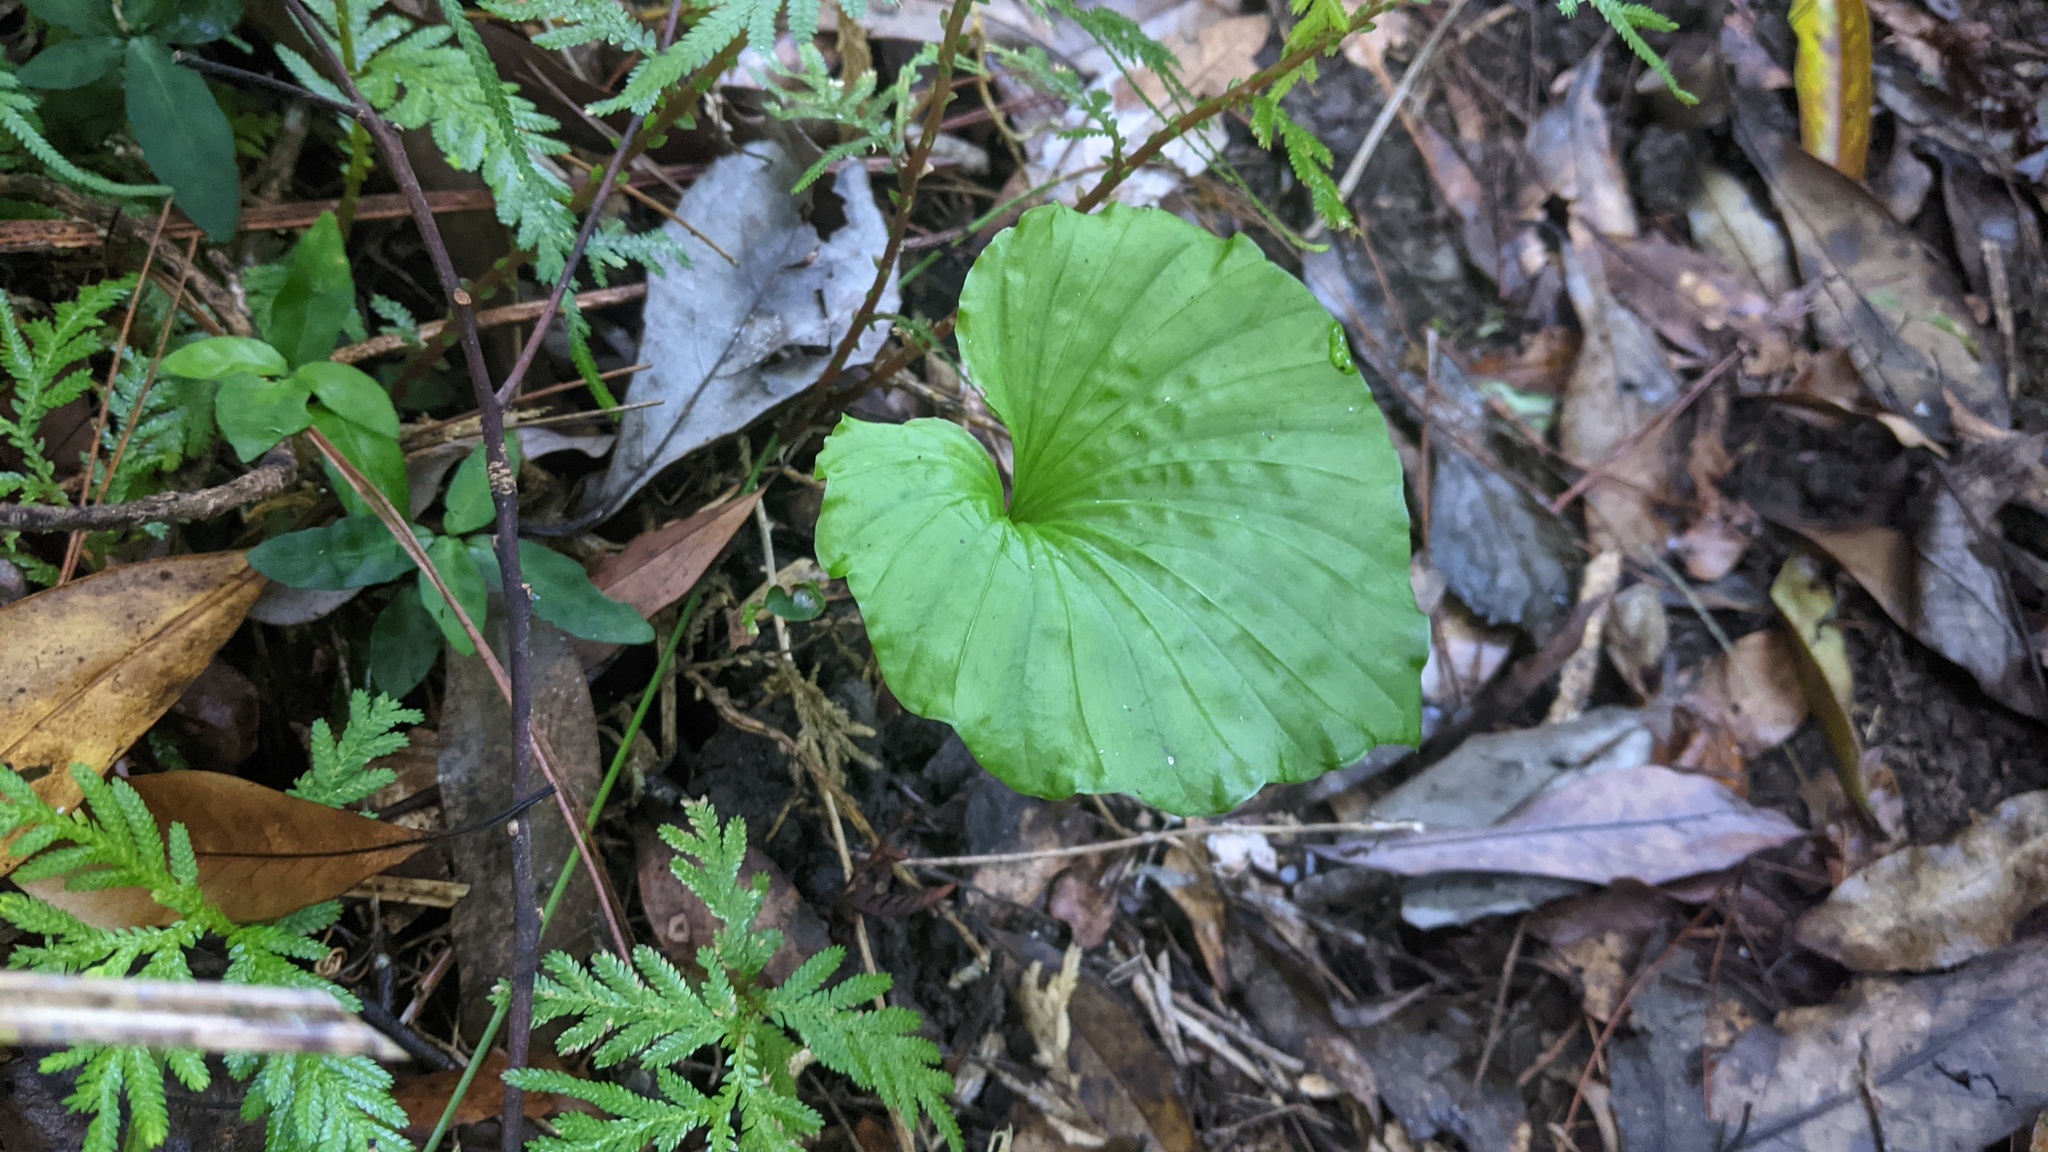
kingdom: Plantae
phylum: Tracheophyta
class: Liliopsida
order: Asparagales
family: Orchidaceae
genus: Nervilia
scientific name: Nervilia concolor
